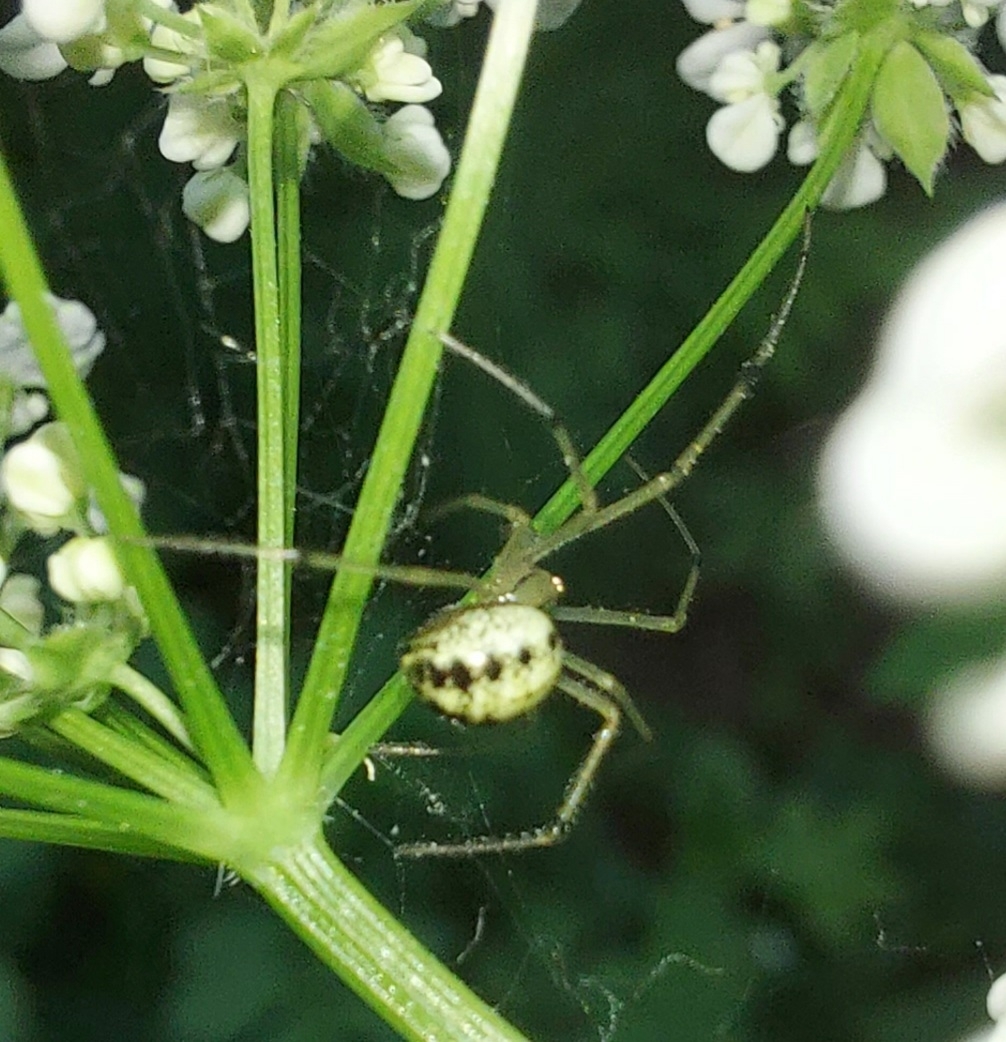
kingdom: Animalia
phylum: Arthropoda
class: Arachnida
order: Araneae
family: Theridiidae
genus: Enoplognatha
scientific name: Enoplognatha ovata
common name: Common candy-striped spider
